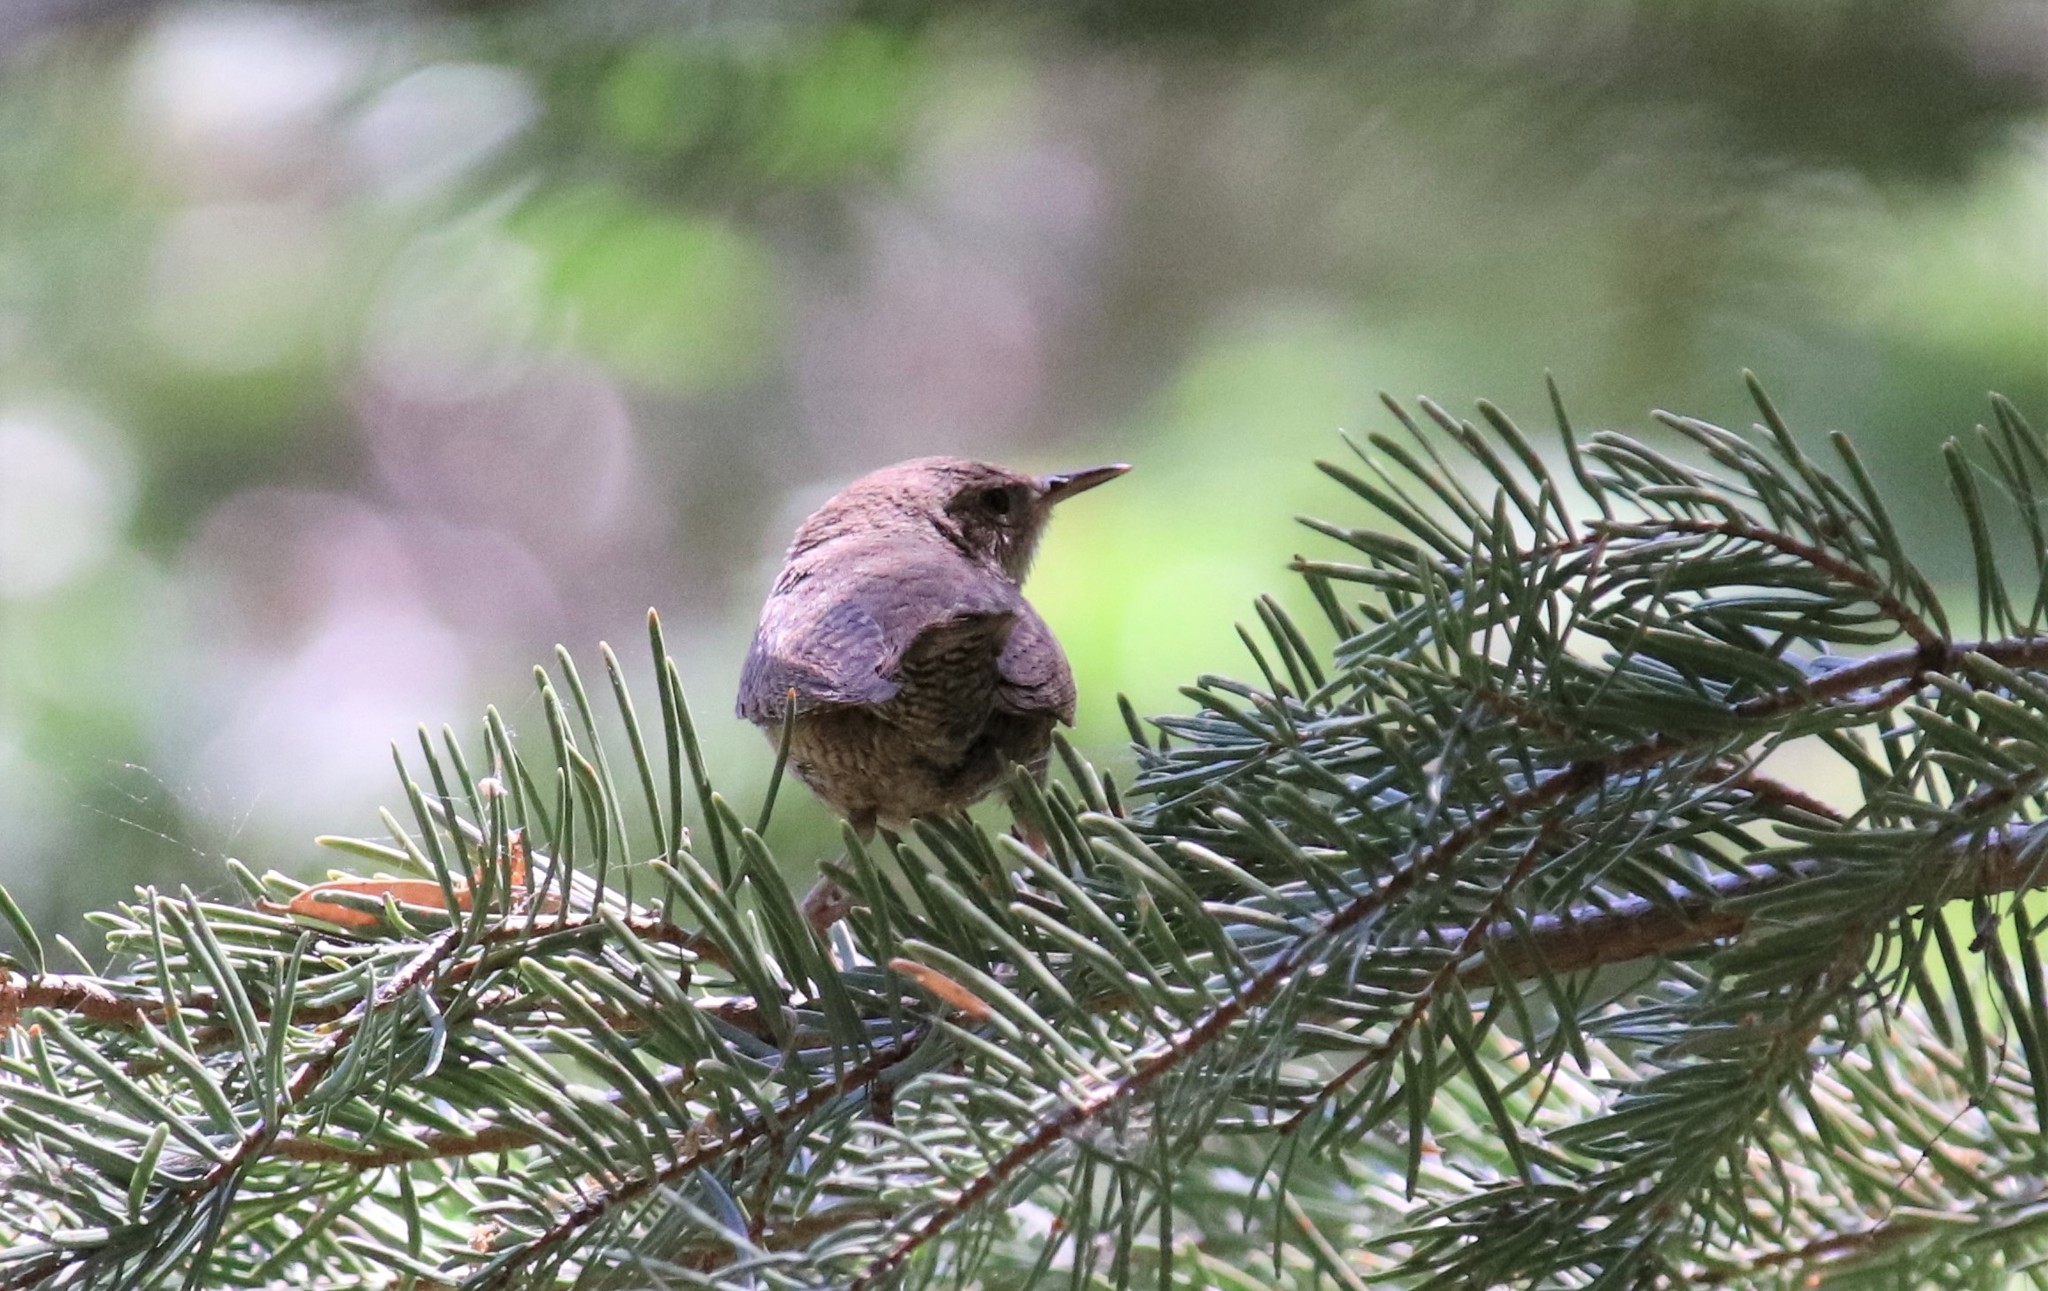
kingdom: Animalia
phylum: Chordata
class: Aves
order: Passeriformes
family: Troglodytidae
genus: Troglodytes
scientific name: Troglodytes aedon
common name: House wren
